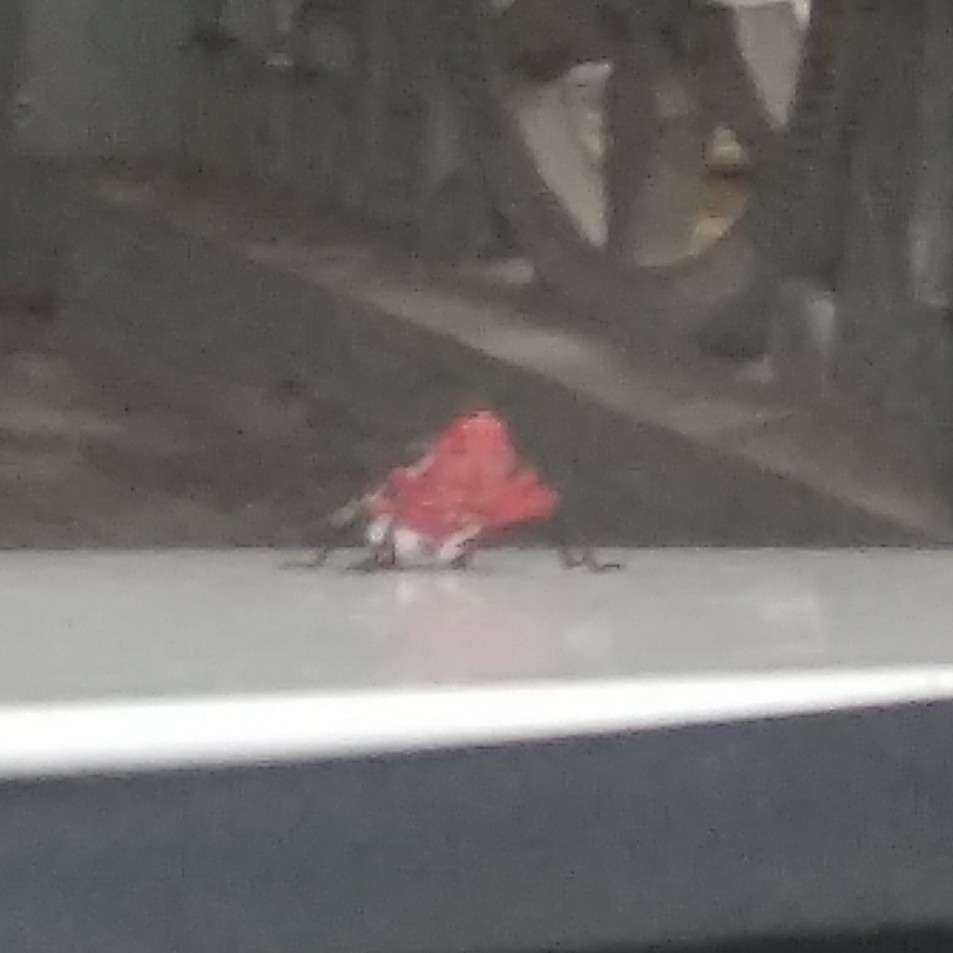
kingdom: Animalia
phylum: Arthropoda
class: Insecta
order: Hemiptera
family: Fulgoridae
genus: Kalidasa
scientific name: Kalidasa lanata
